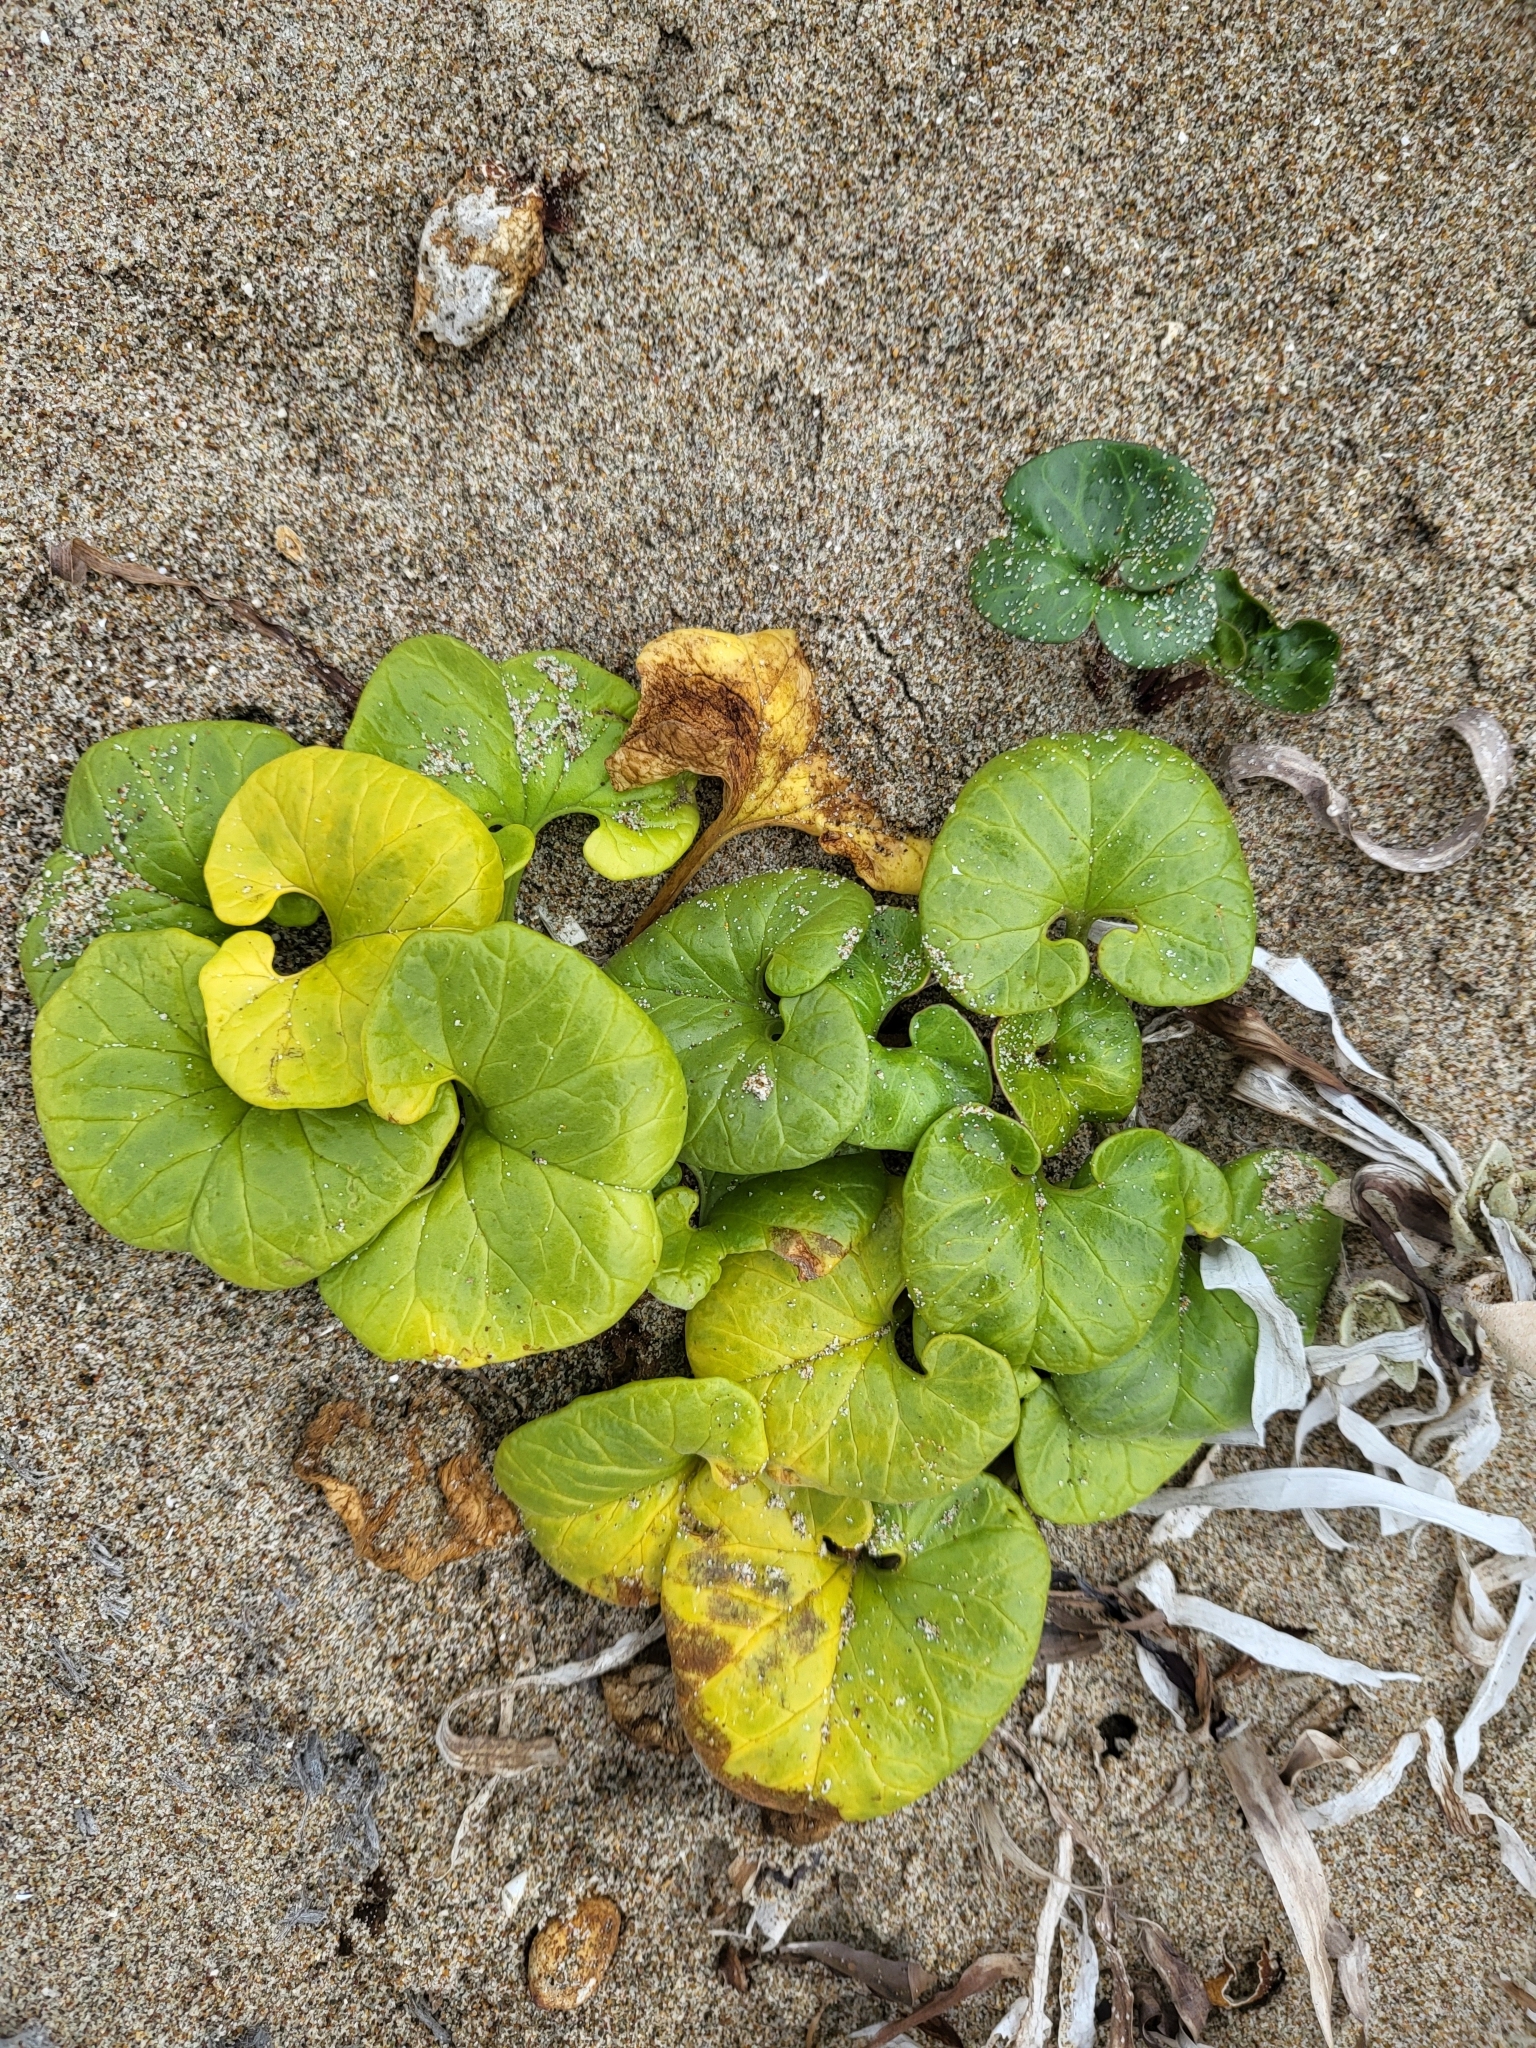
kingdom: Plantae
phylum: Tracheophyta
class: Magnoliopsida
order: Solanales
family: Convolvulaceae
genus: Calystegia
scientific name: Calystegia soldanella
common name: Sea bindweed
